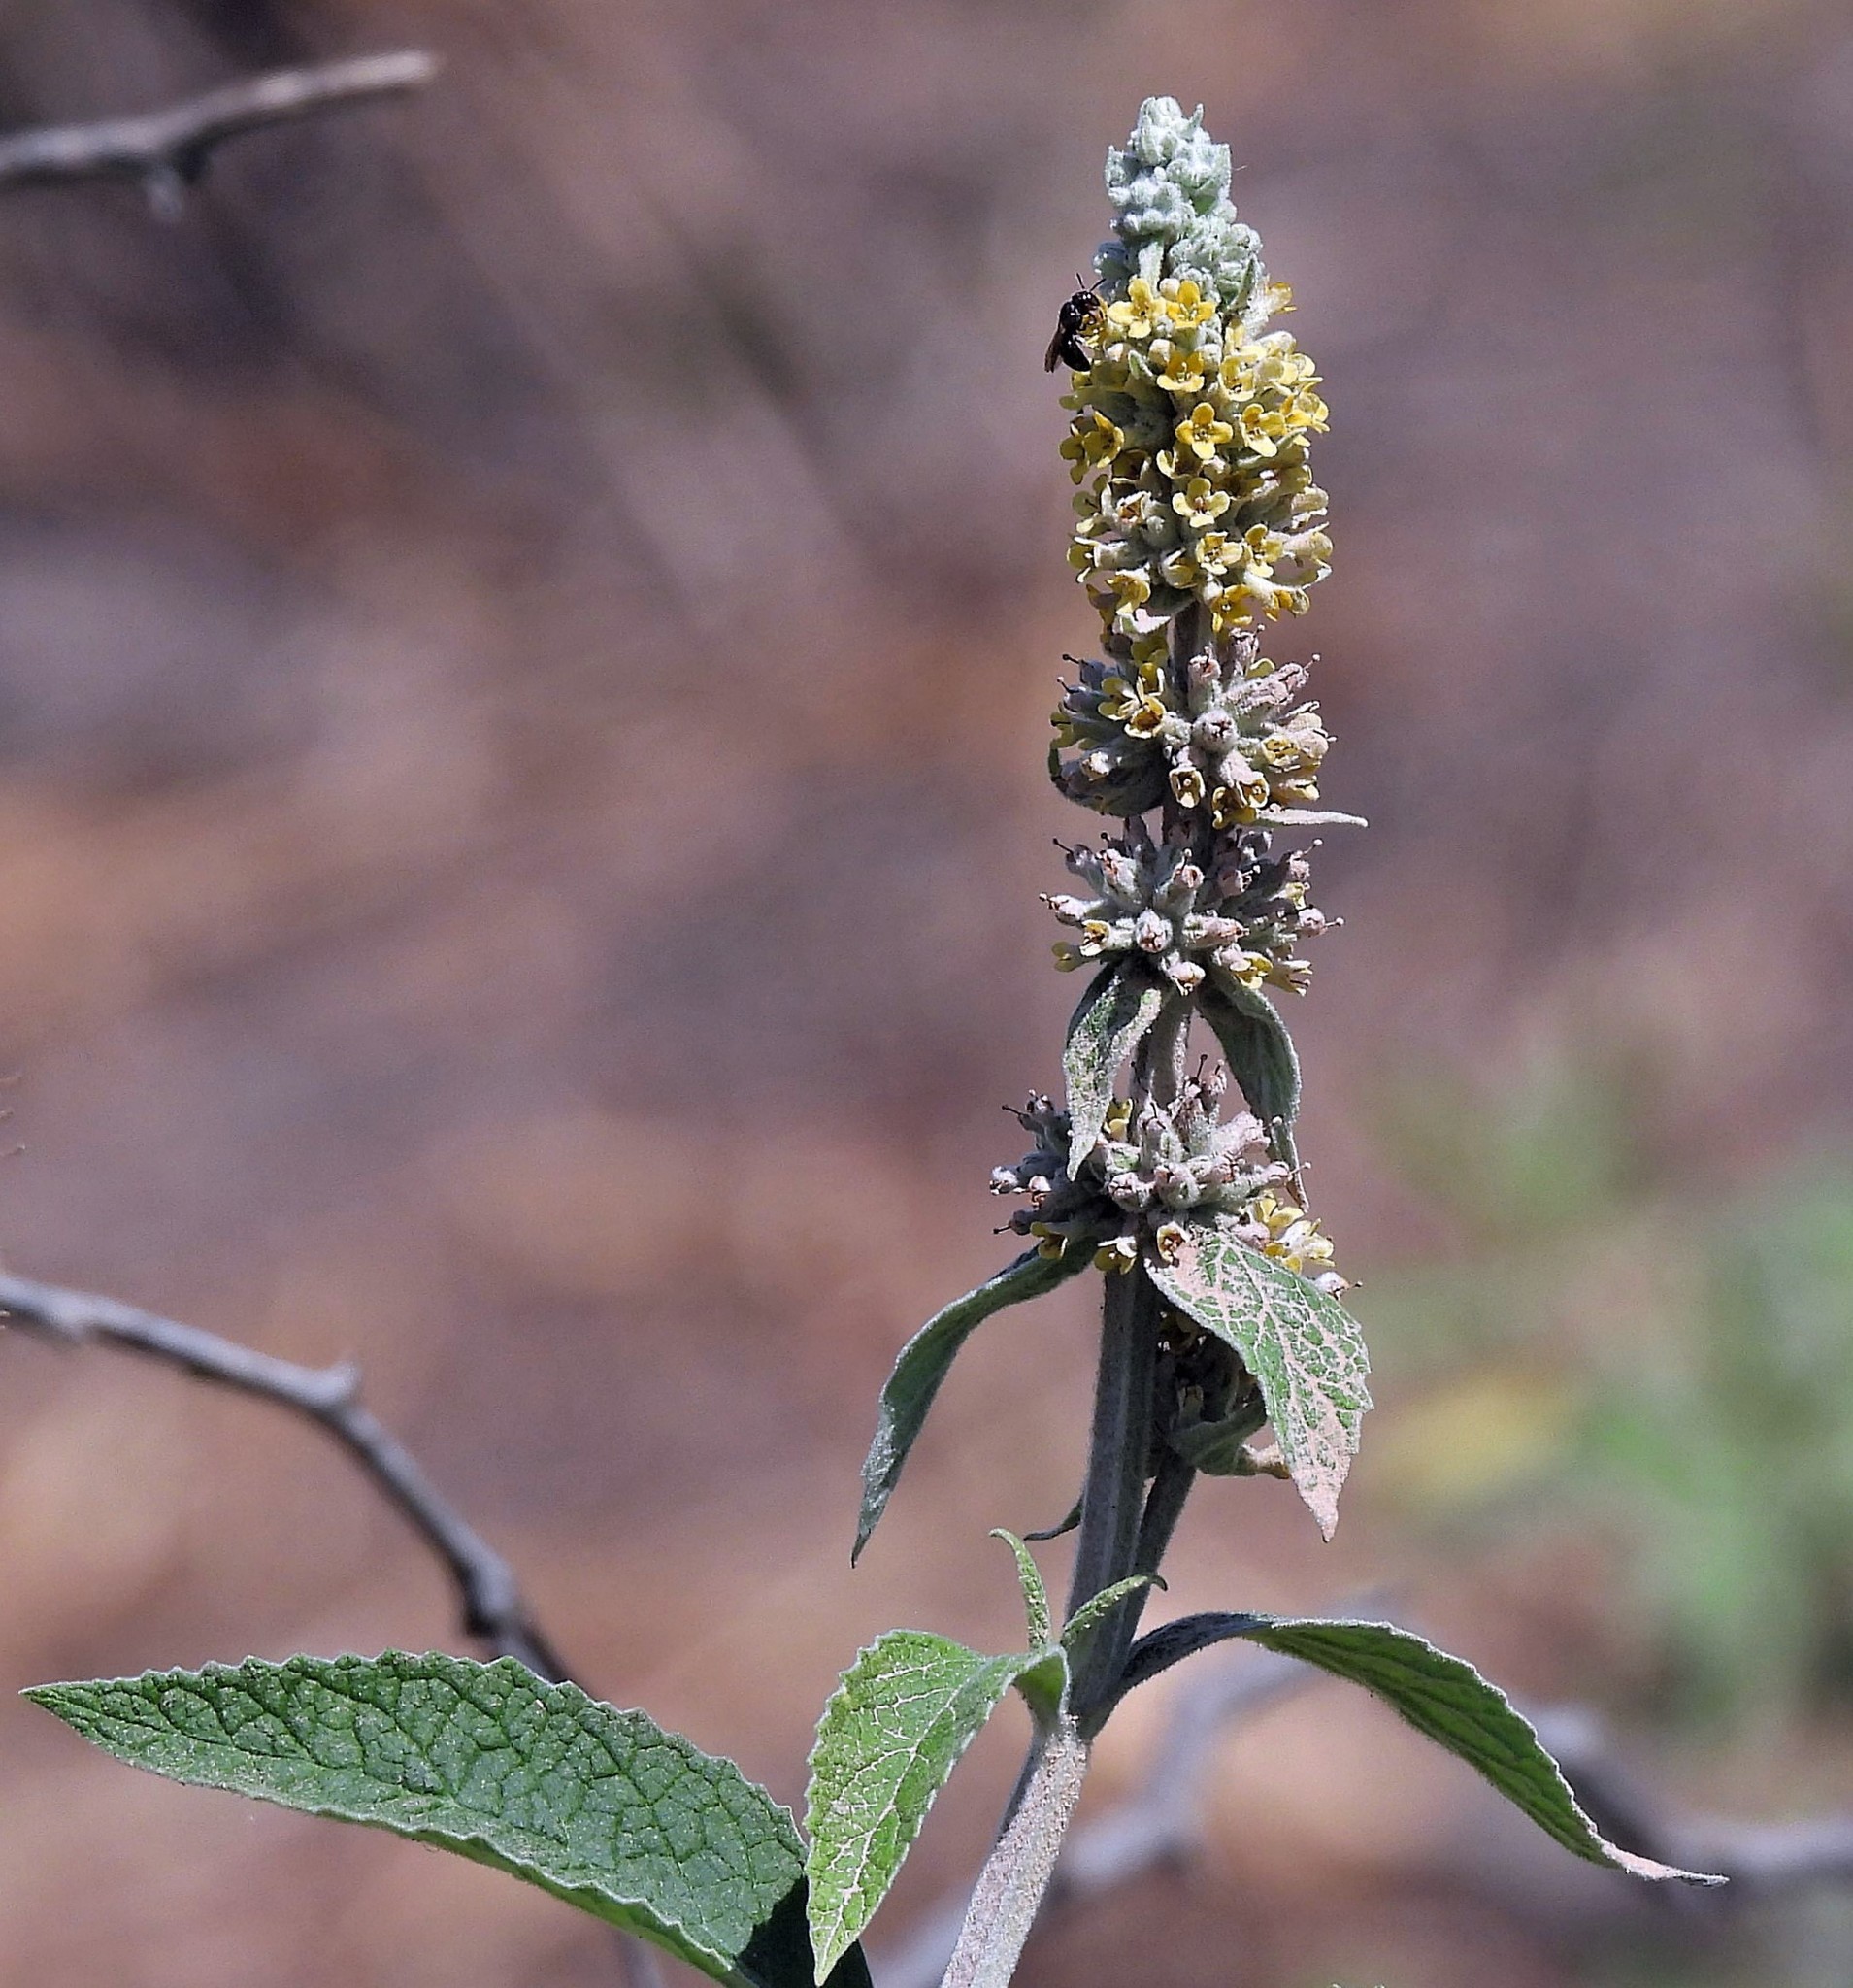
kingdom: Plantae
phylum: Tracheophyta
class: Magnoliopsida
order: Lamiales
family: Scrophulariaceae
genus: Buddleja
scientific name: Buddleja stachyoides
